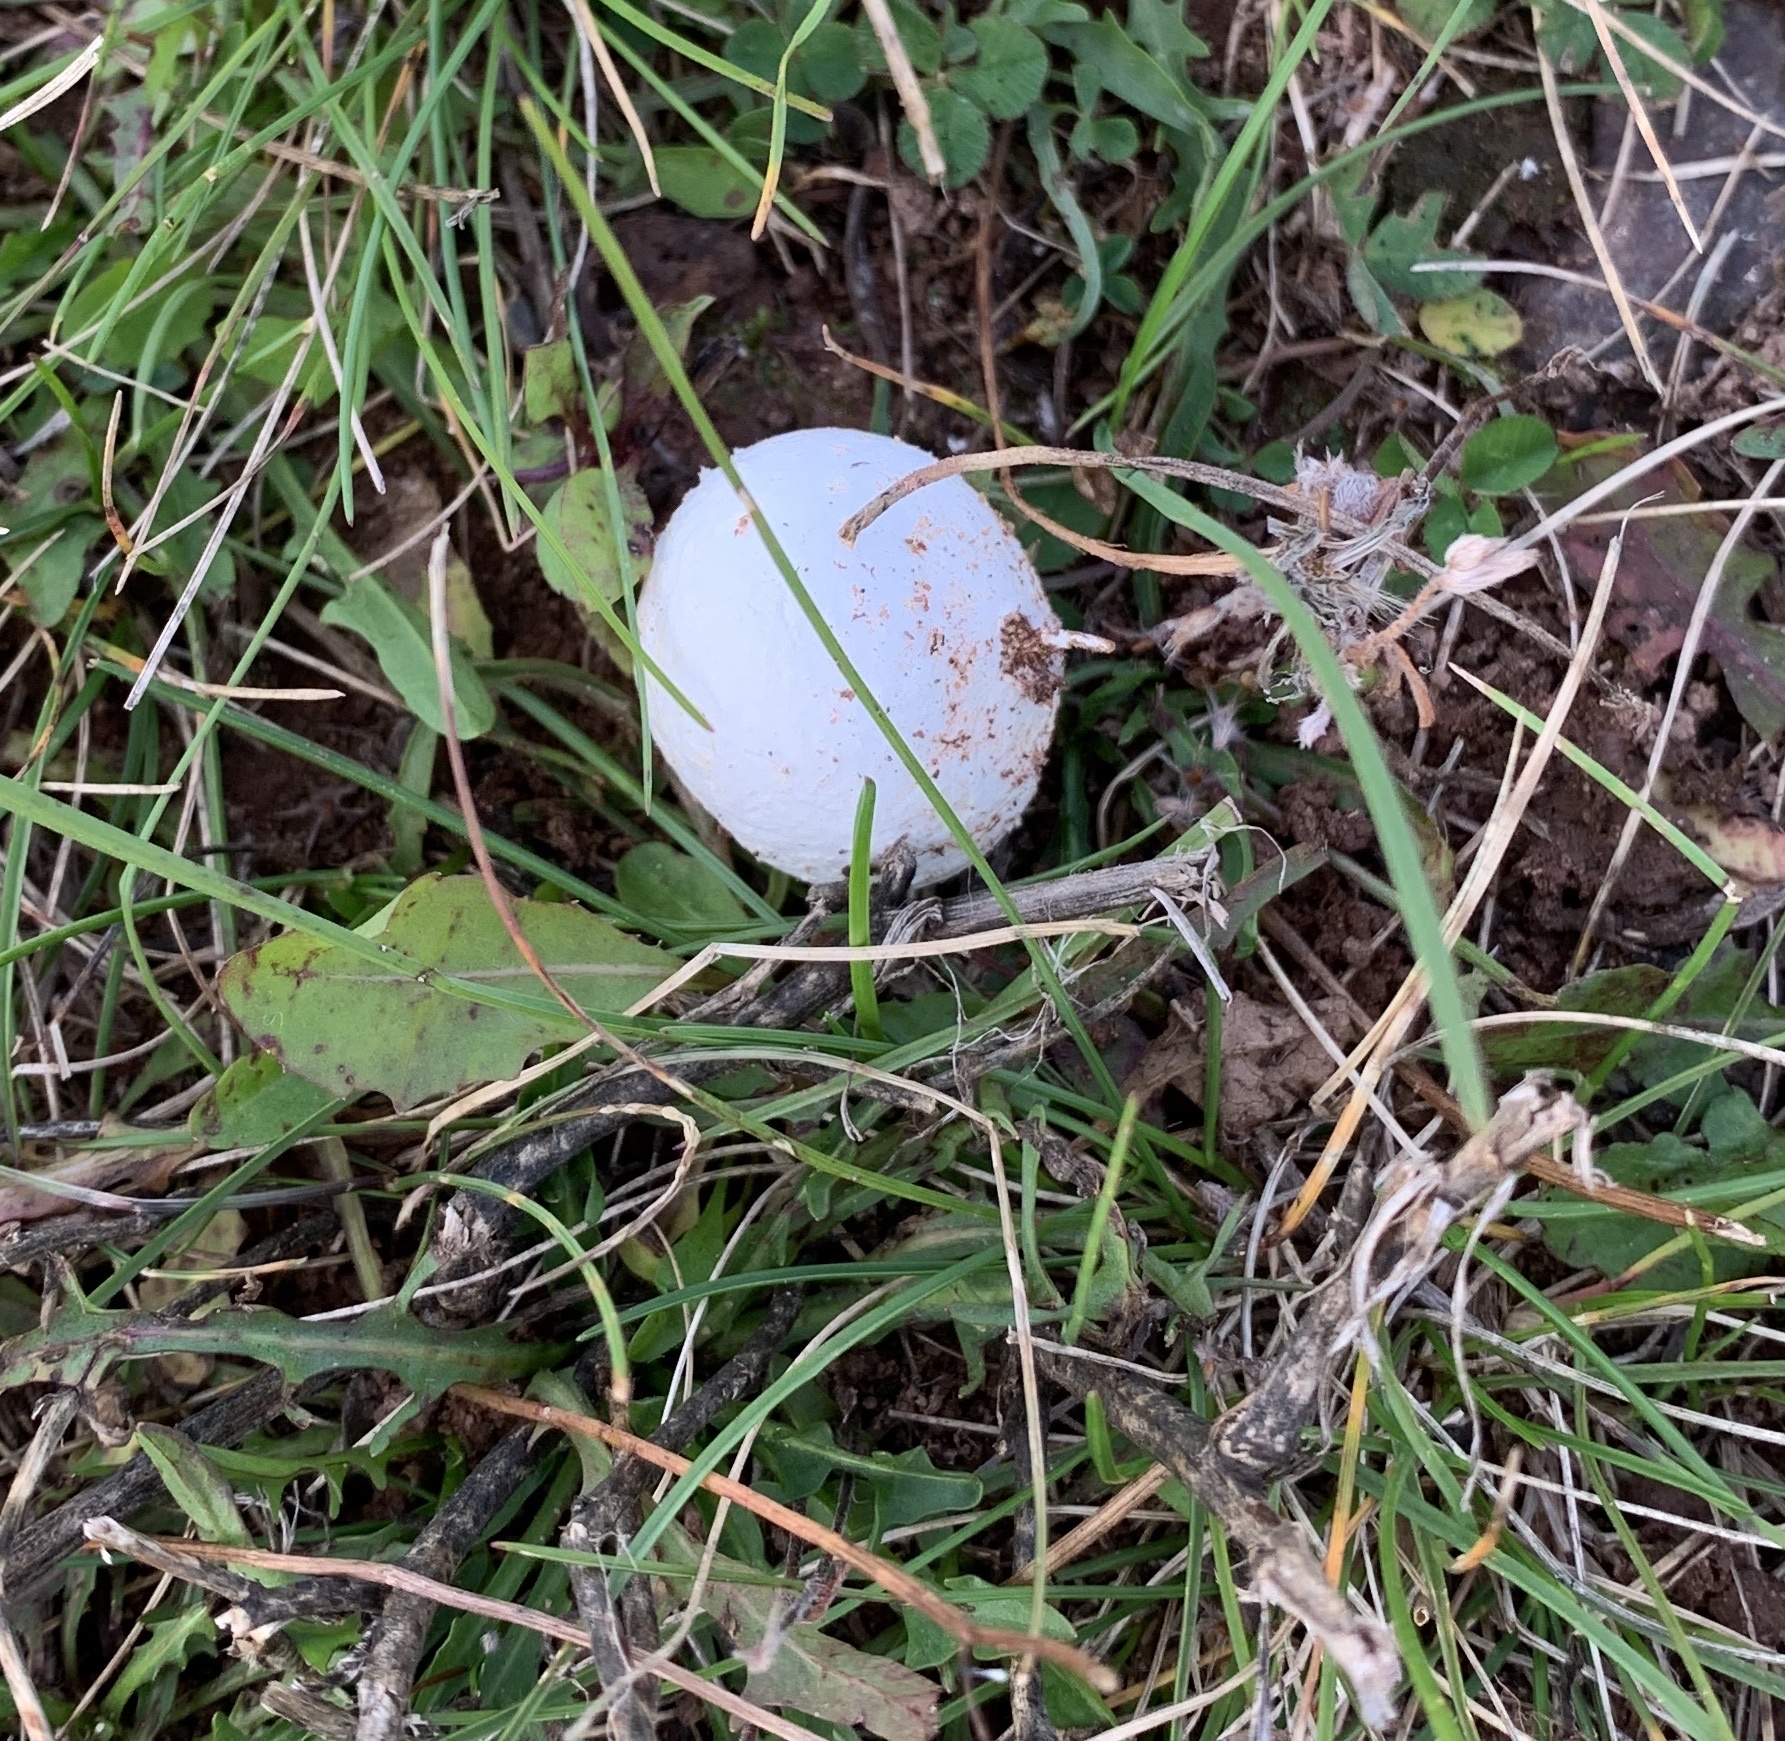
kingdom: Fungi
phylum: Basidiomycota
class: Agaricomycetes
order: Agaricales
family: Lycoperdaceae
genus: Lycoperdon
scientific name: Lycoperdon pratense
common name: Meadow puffball
